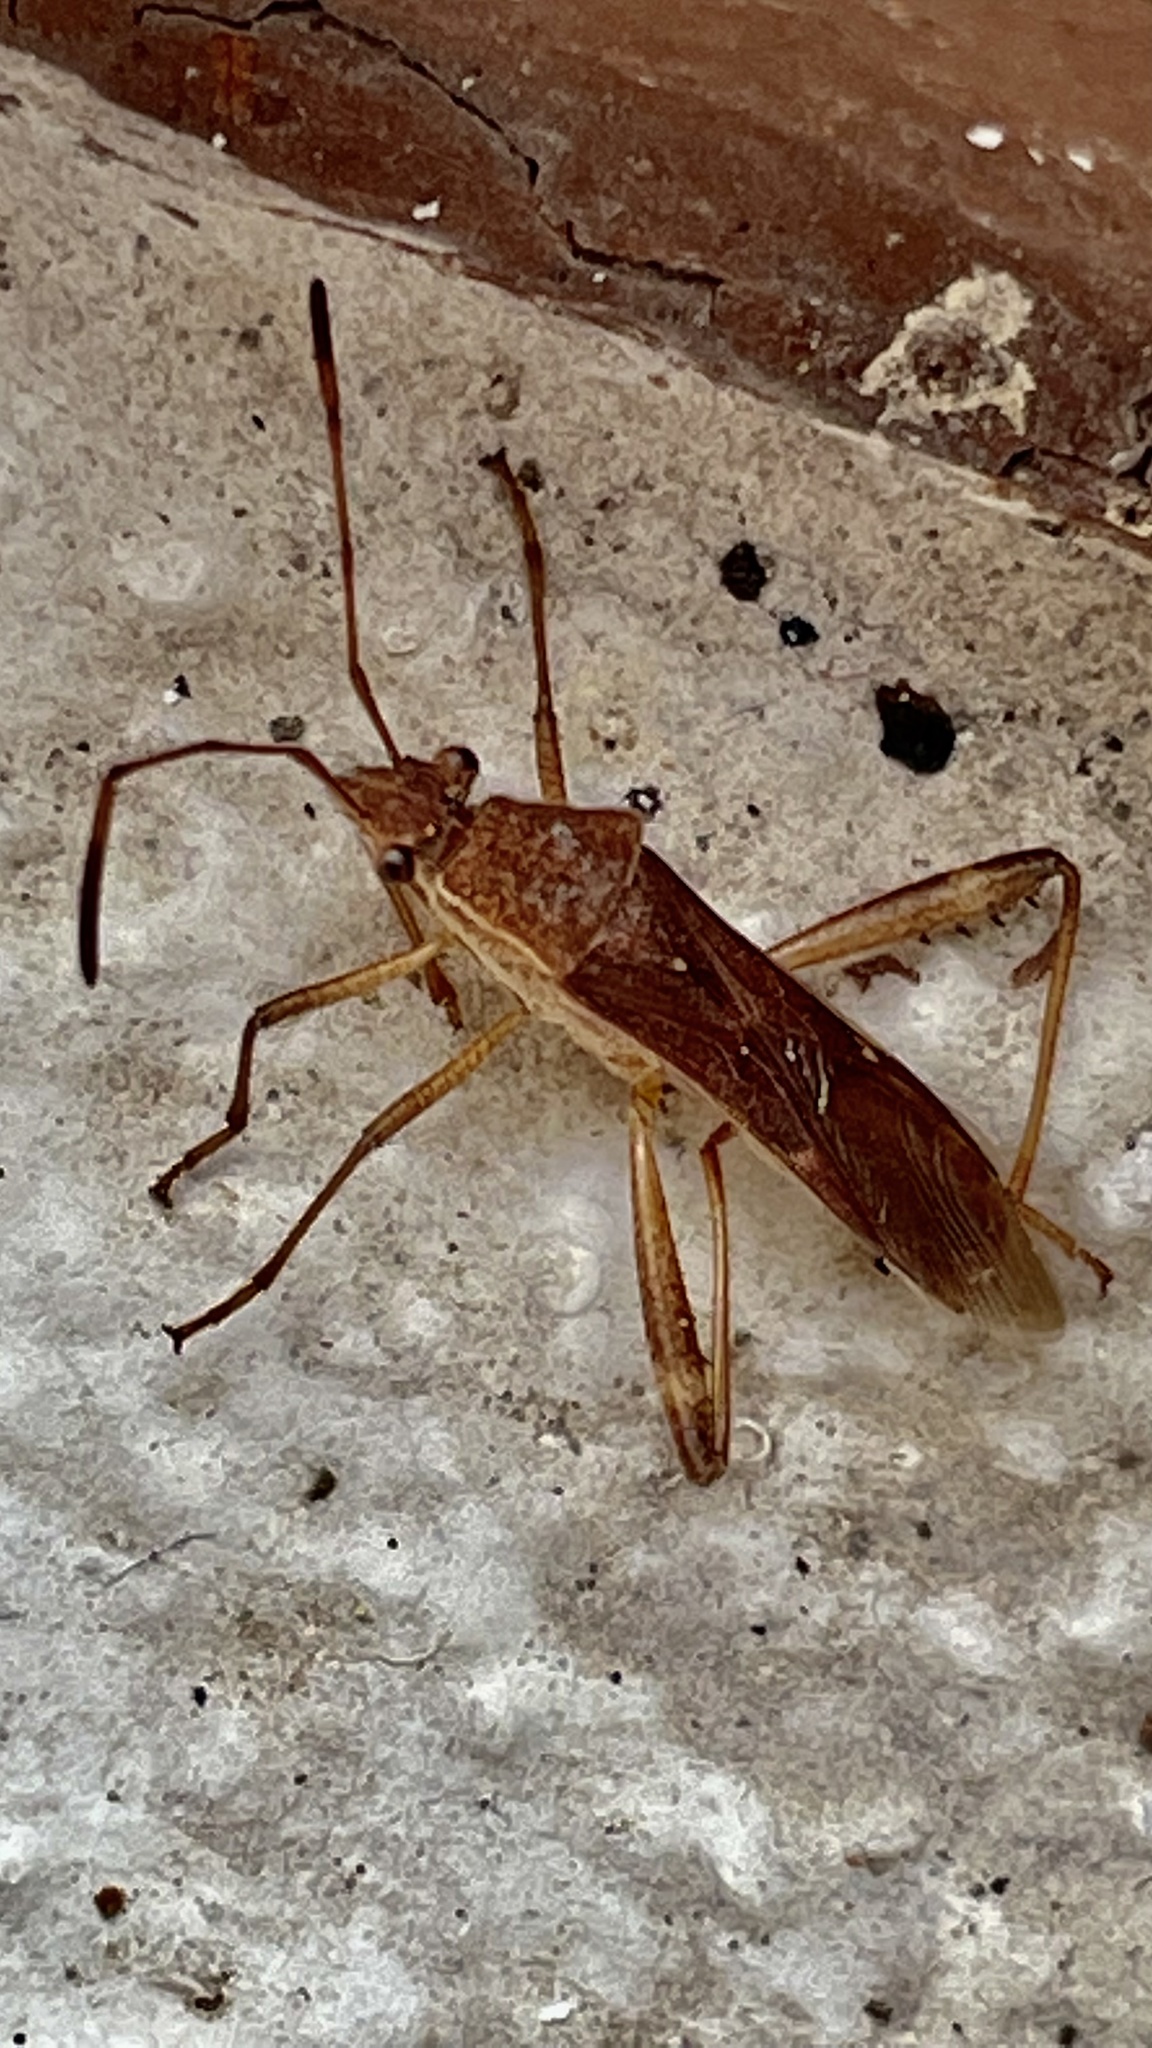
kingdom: Animalia
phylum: Arthropoda
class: Insecta
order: Hemiptera
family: Alydidae
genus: Burtinus
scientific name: Burtinus notatipennis
